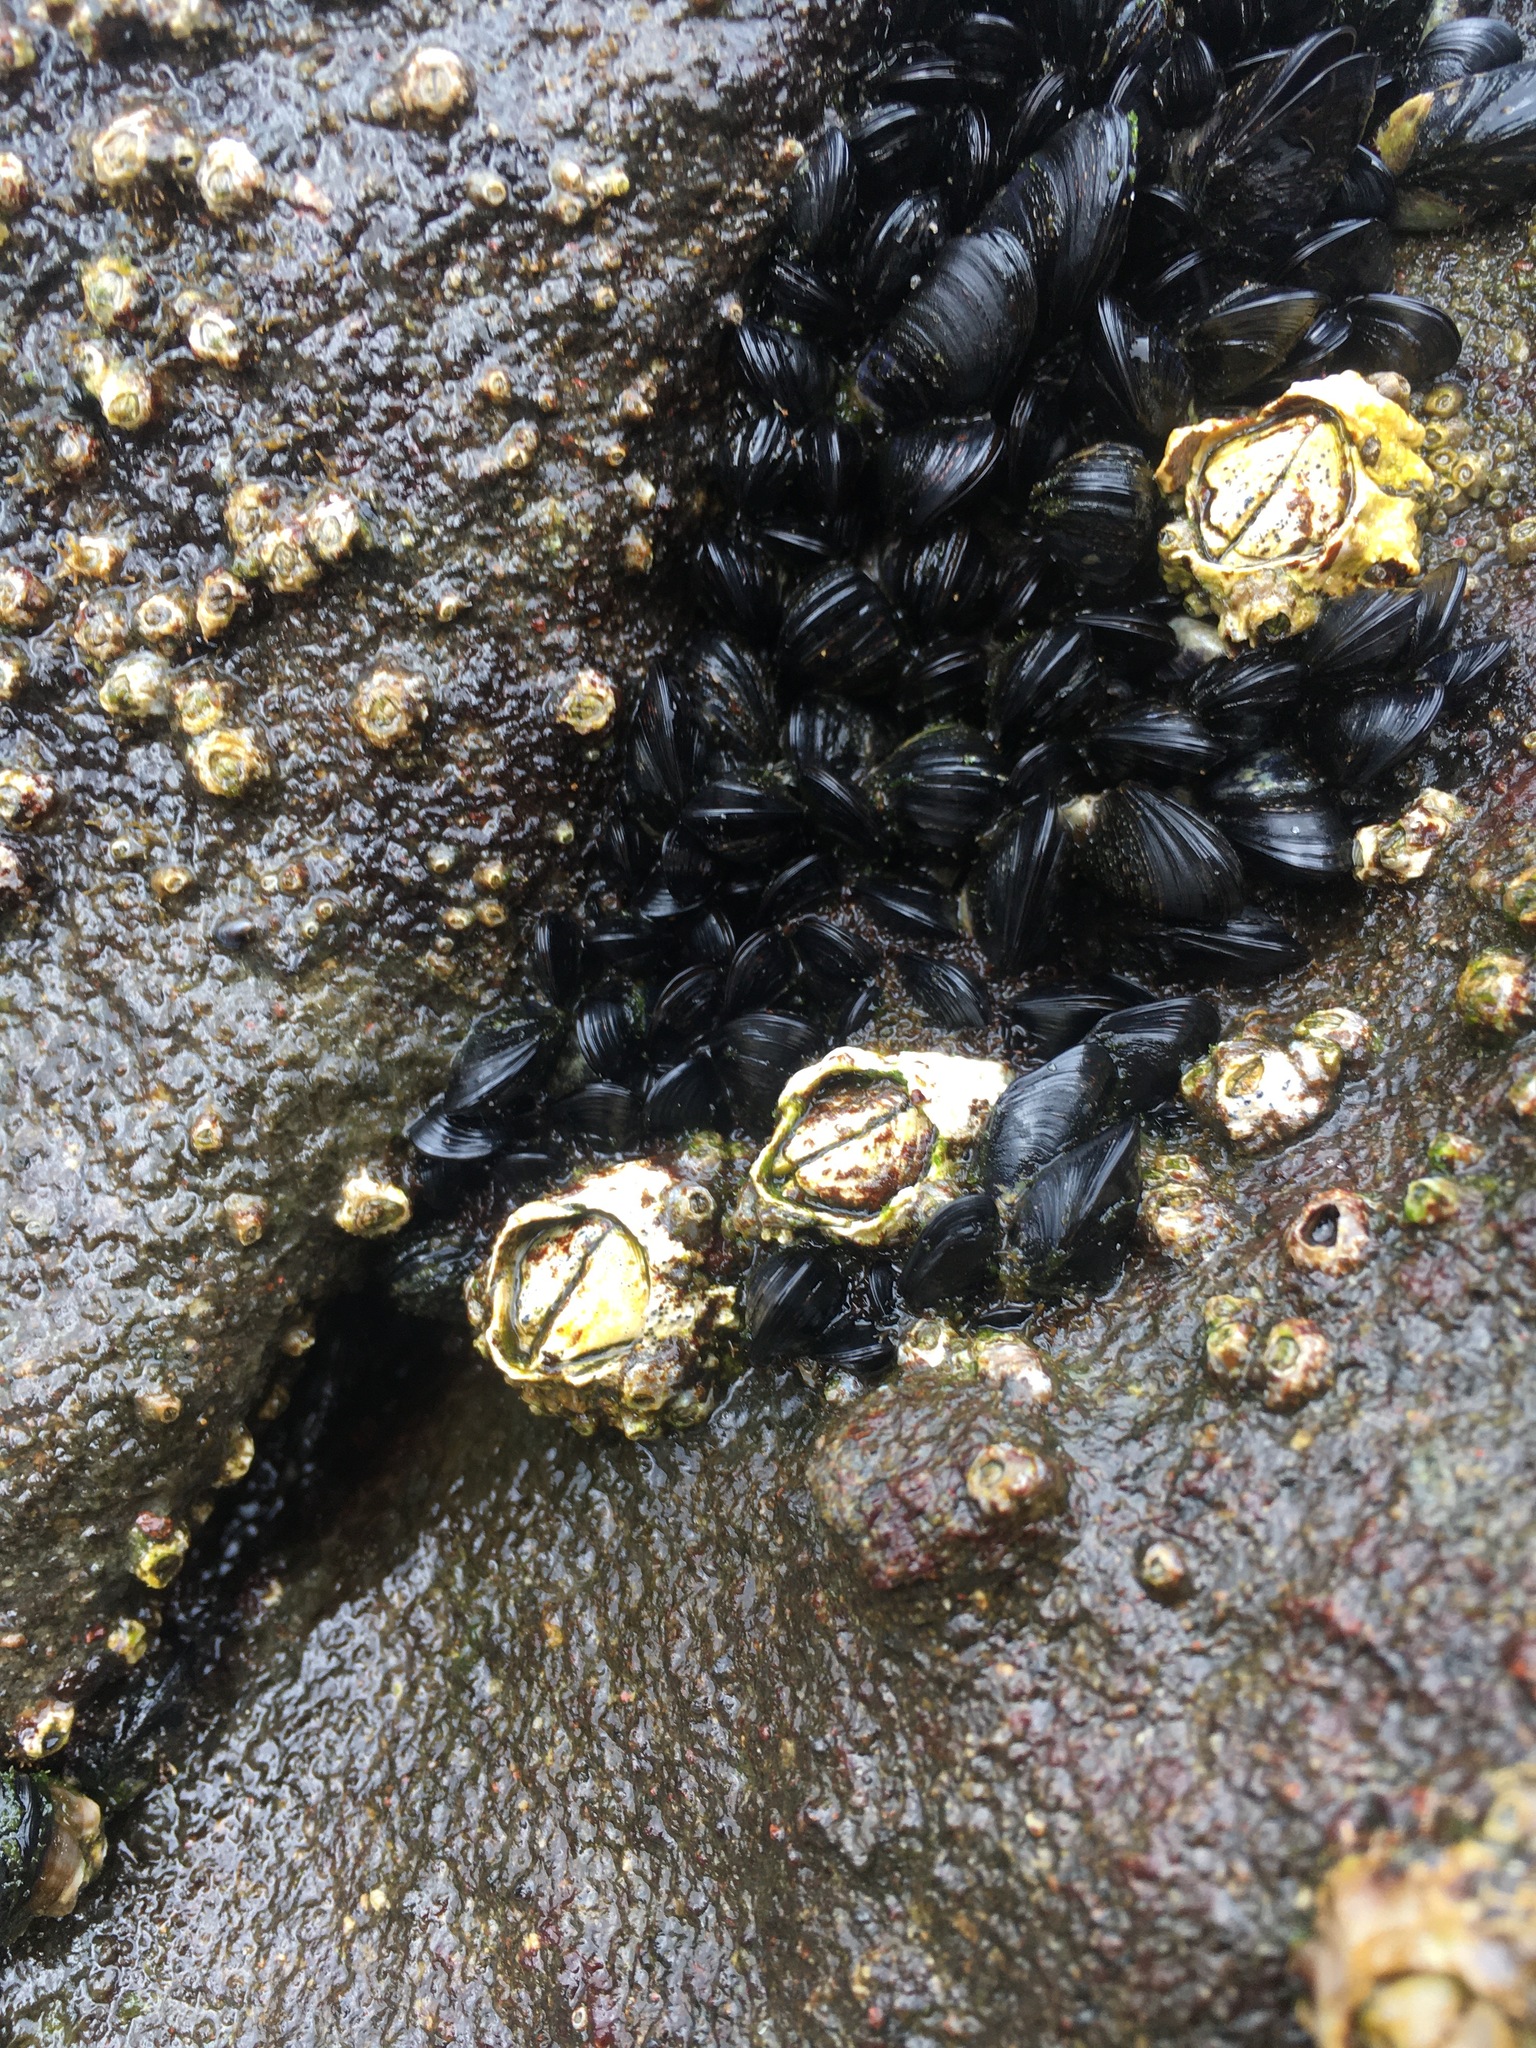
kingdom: Animalia
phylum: Arthropoda
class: Maxillopoda
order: Sessilia
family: Tetraclitidae
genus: Epopella
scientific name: Epopella plicata
